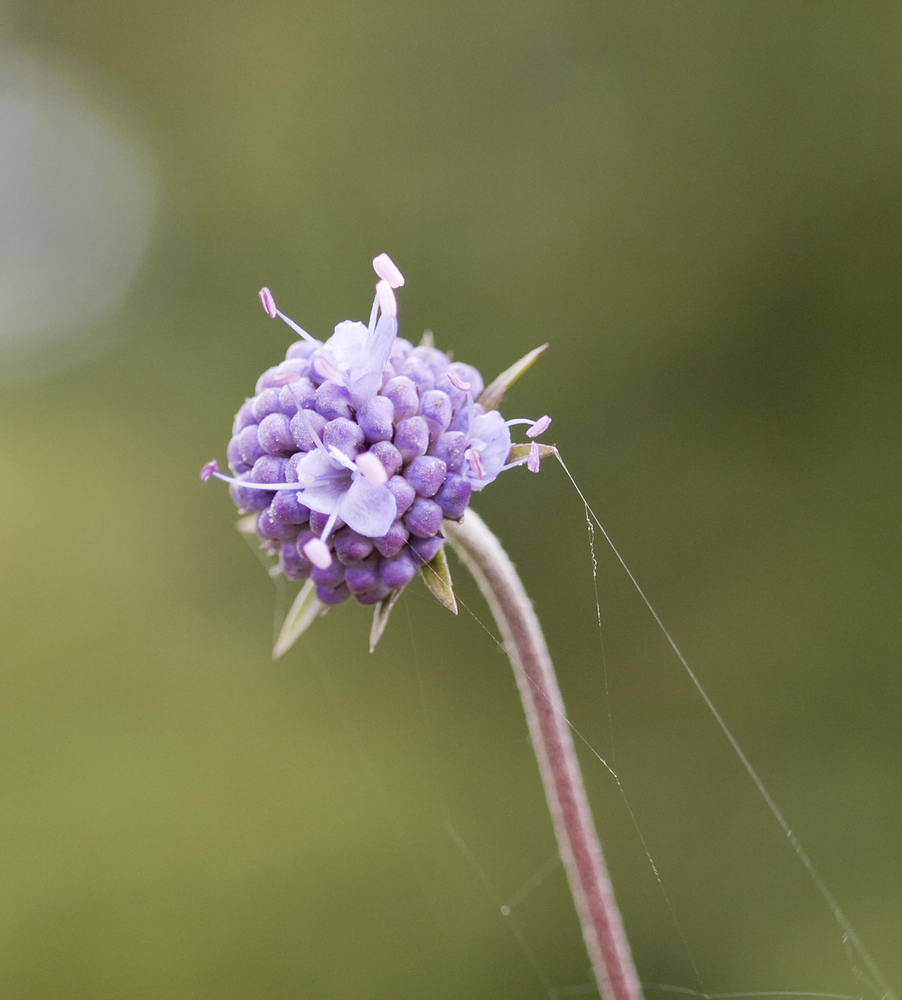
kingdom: Plantae
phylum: Tracheophyta
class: Magnoliopsida
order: Dipsacales
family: Caprifoliaceae
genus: Succisa
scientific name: Succisa pratensis
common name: Devil's-bit
